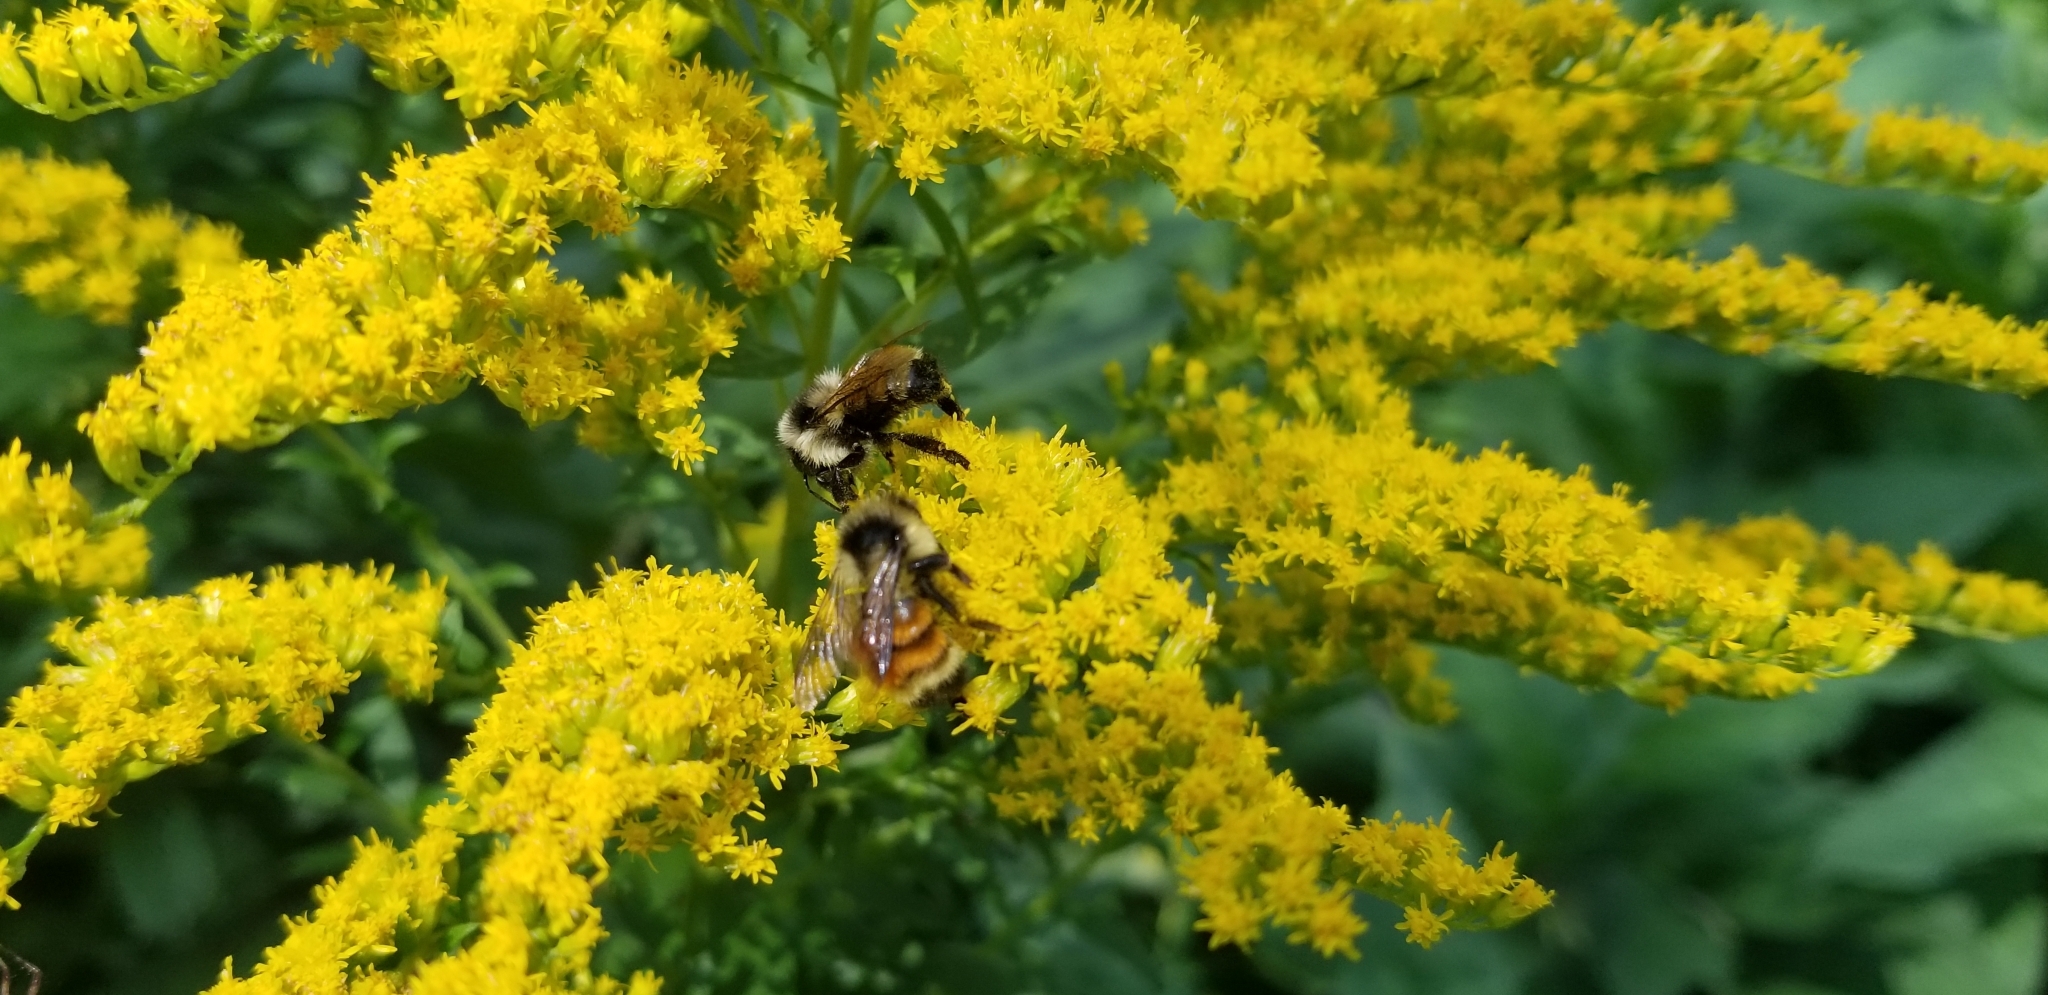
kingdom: Animalia
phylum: Arthropoda
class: Insecta
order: Hymenoptera
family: Apidae
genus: Bombus
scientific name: Bombus ternarius
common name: Tri-colored bumble bee
